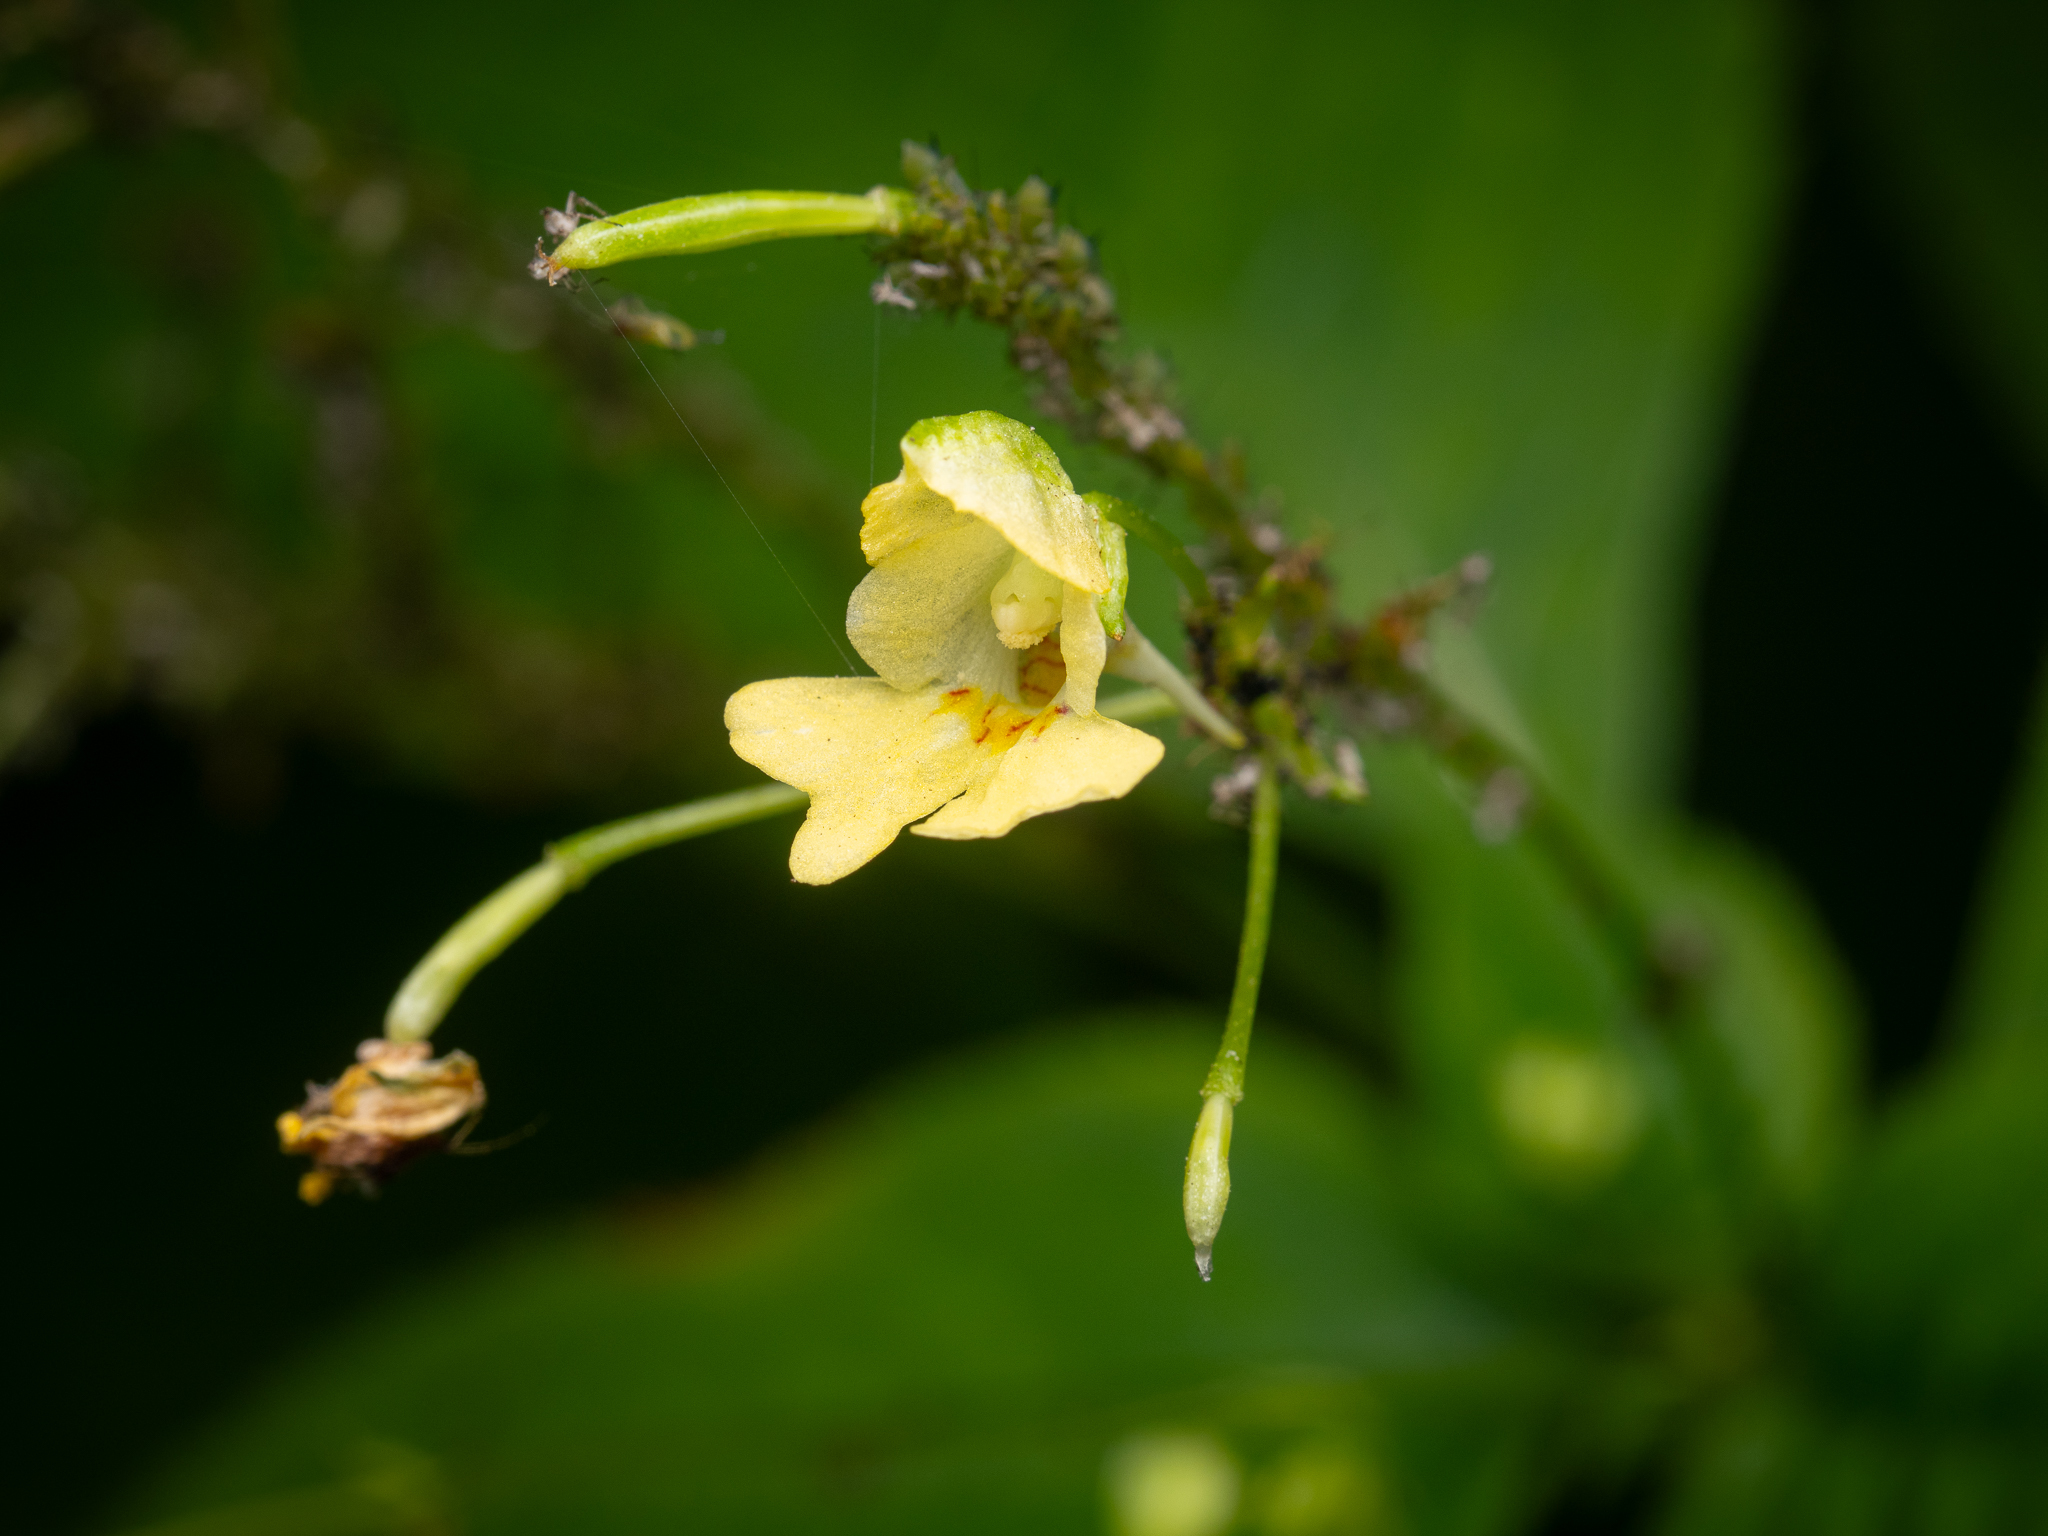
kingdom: Plantae
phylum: Tracheophyta
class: Magnoliopsida
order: Ericales
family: Balsaminaceae
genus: Impatiens
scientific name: Impatiens parviflora
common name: Small balsam
